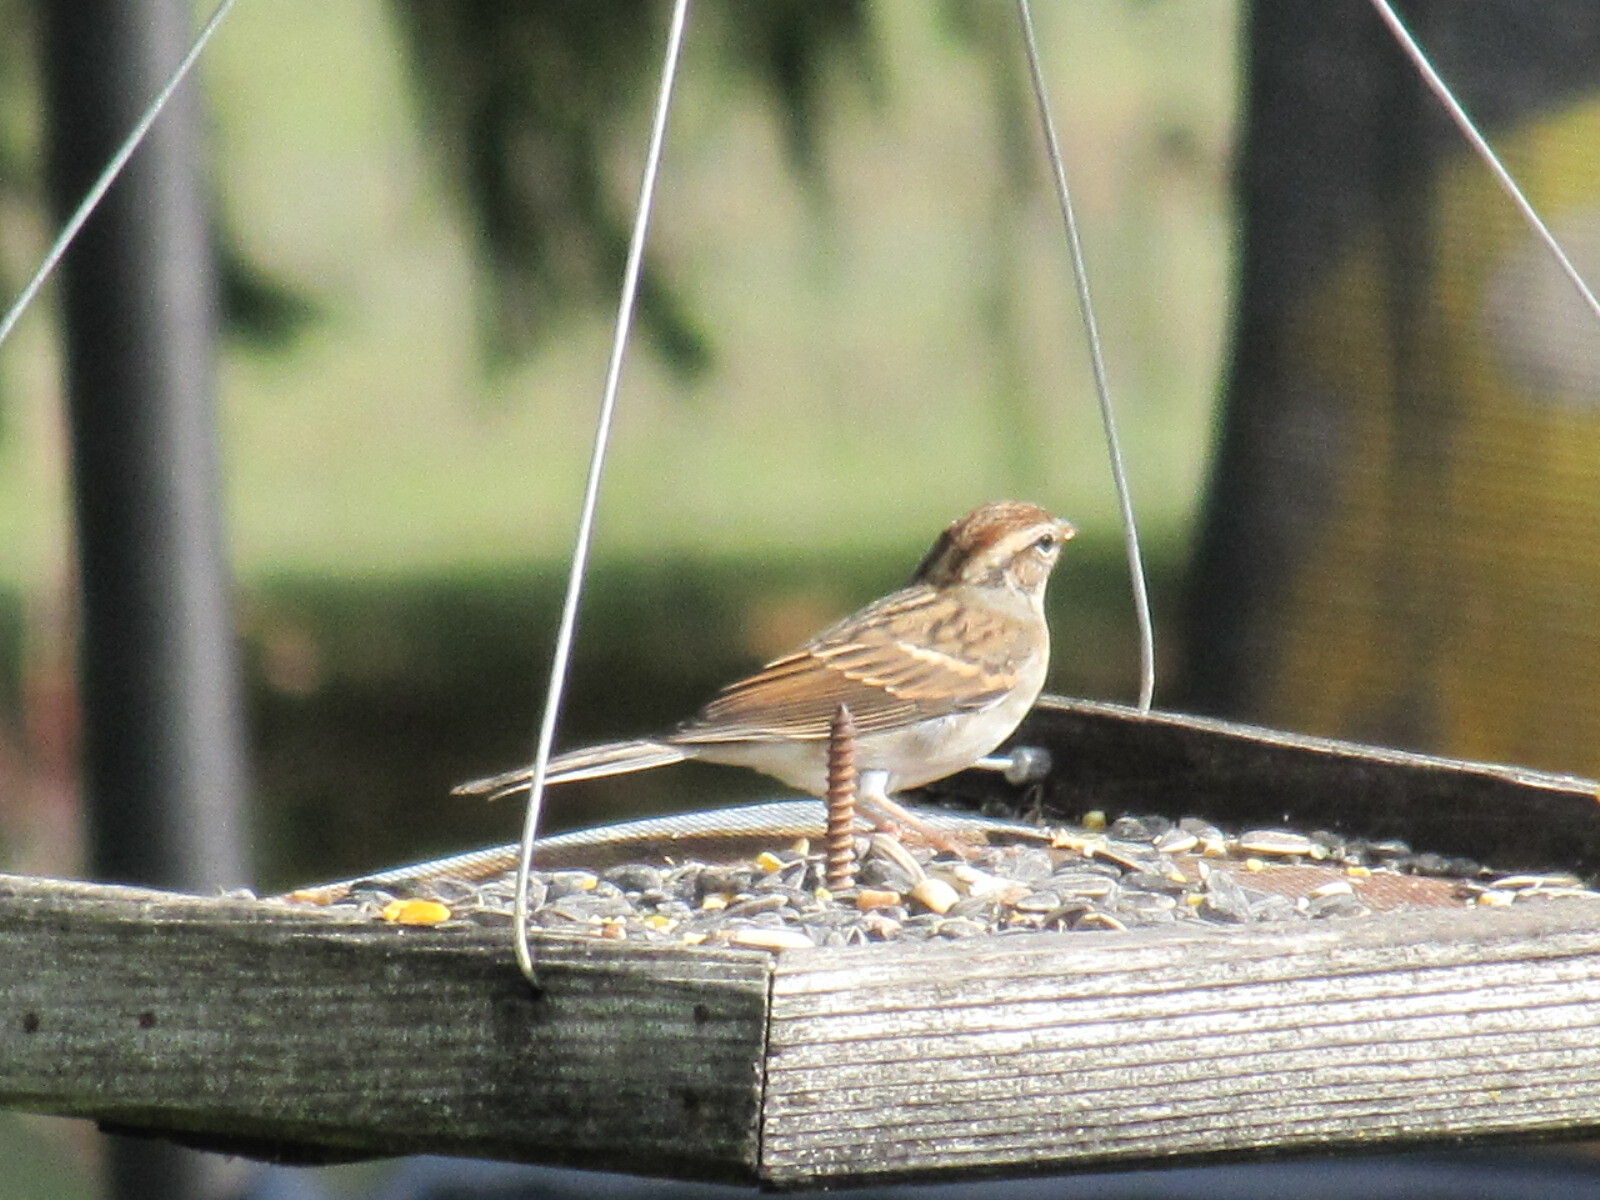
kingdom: Animalia
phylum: Chordata
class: Aves
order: Passeriformes
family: Passerellidae
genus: Spizella
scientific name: Spizella passerina
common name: Chipping sparrow
